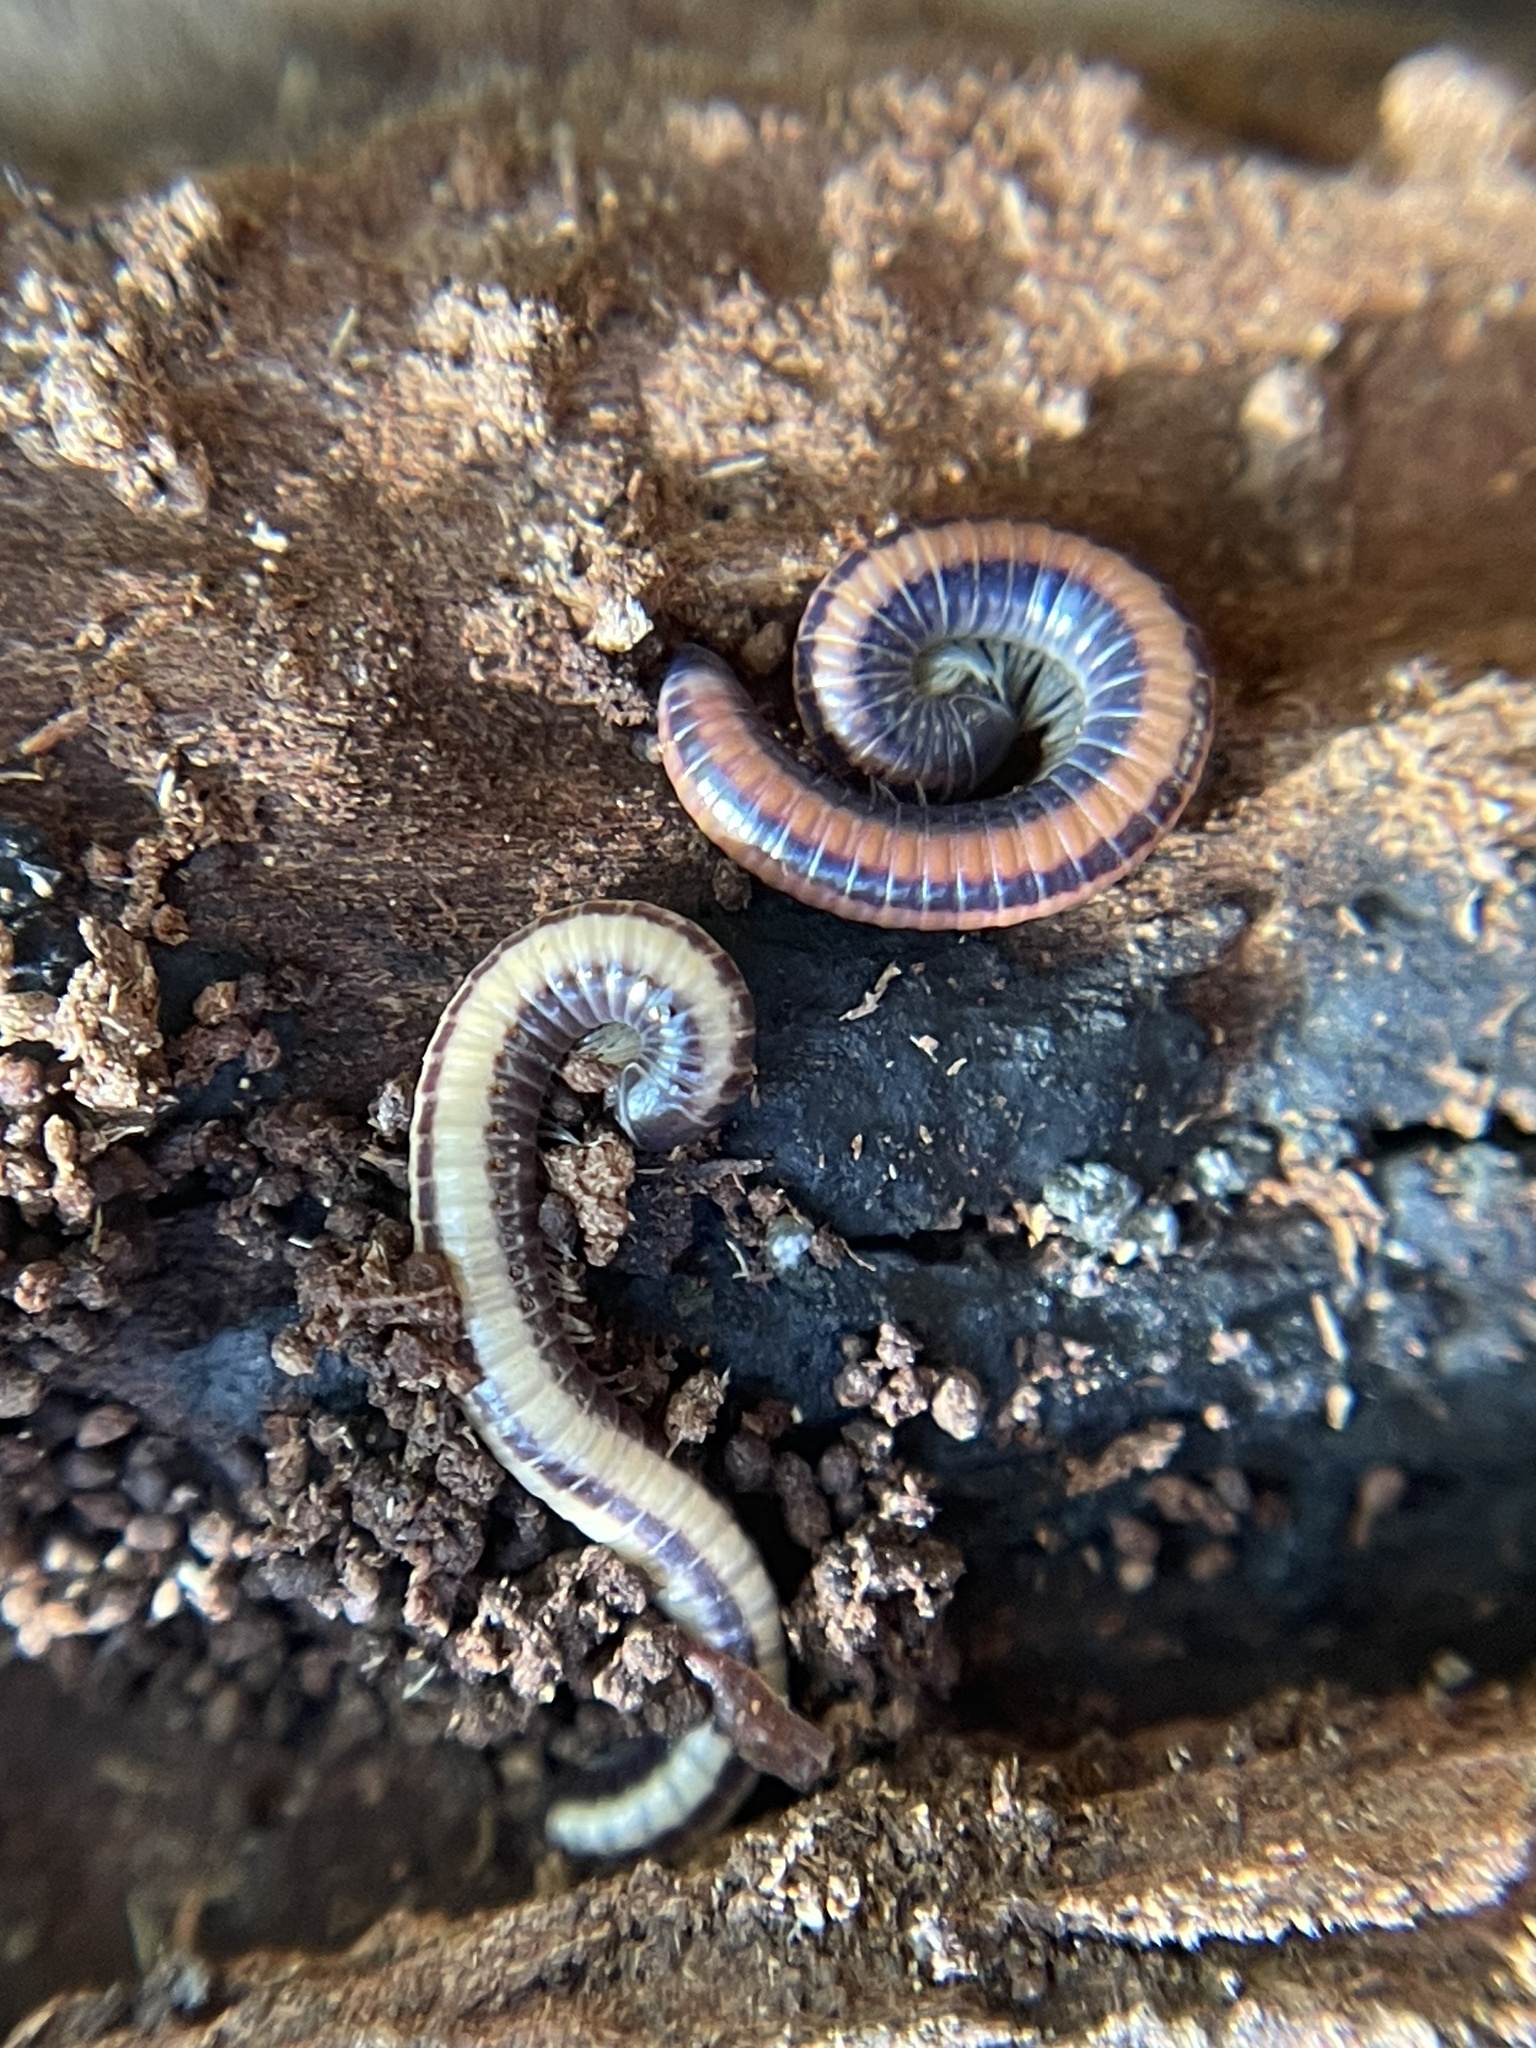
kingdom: Animalia
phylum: Arthropoda
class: Diplopoda
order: Spirobolida
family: Spirobolellidae
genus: Spirobolellus
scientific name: Spirobolellus immigrans
